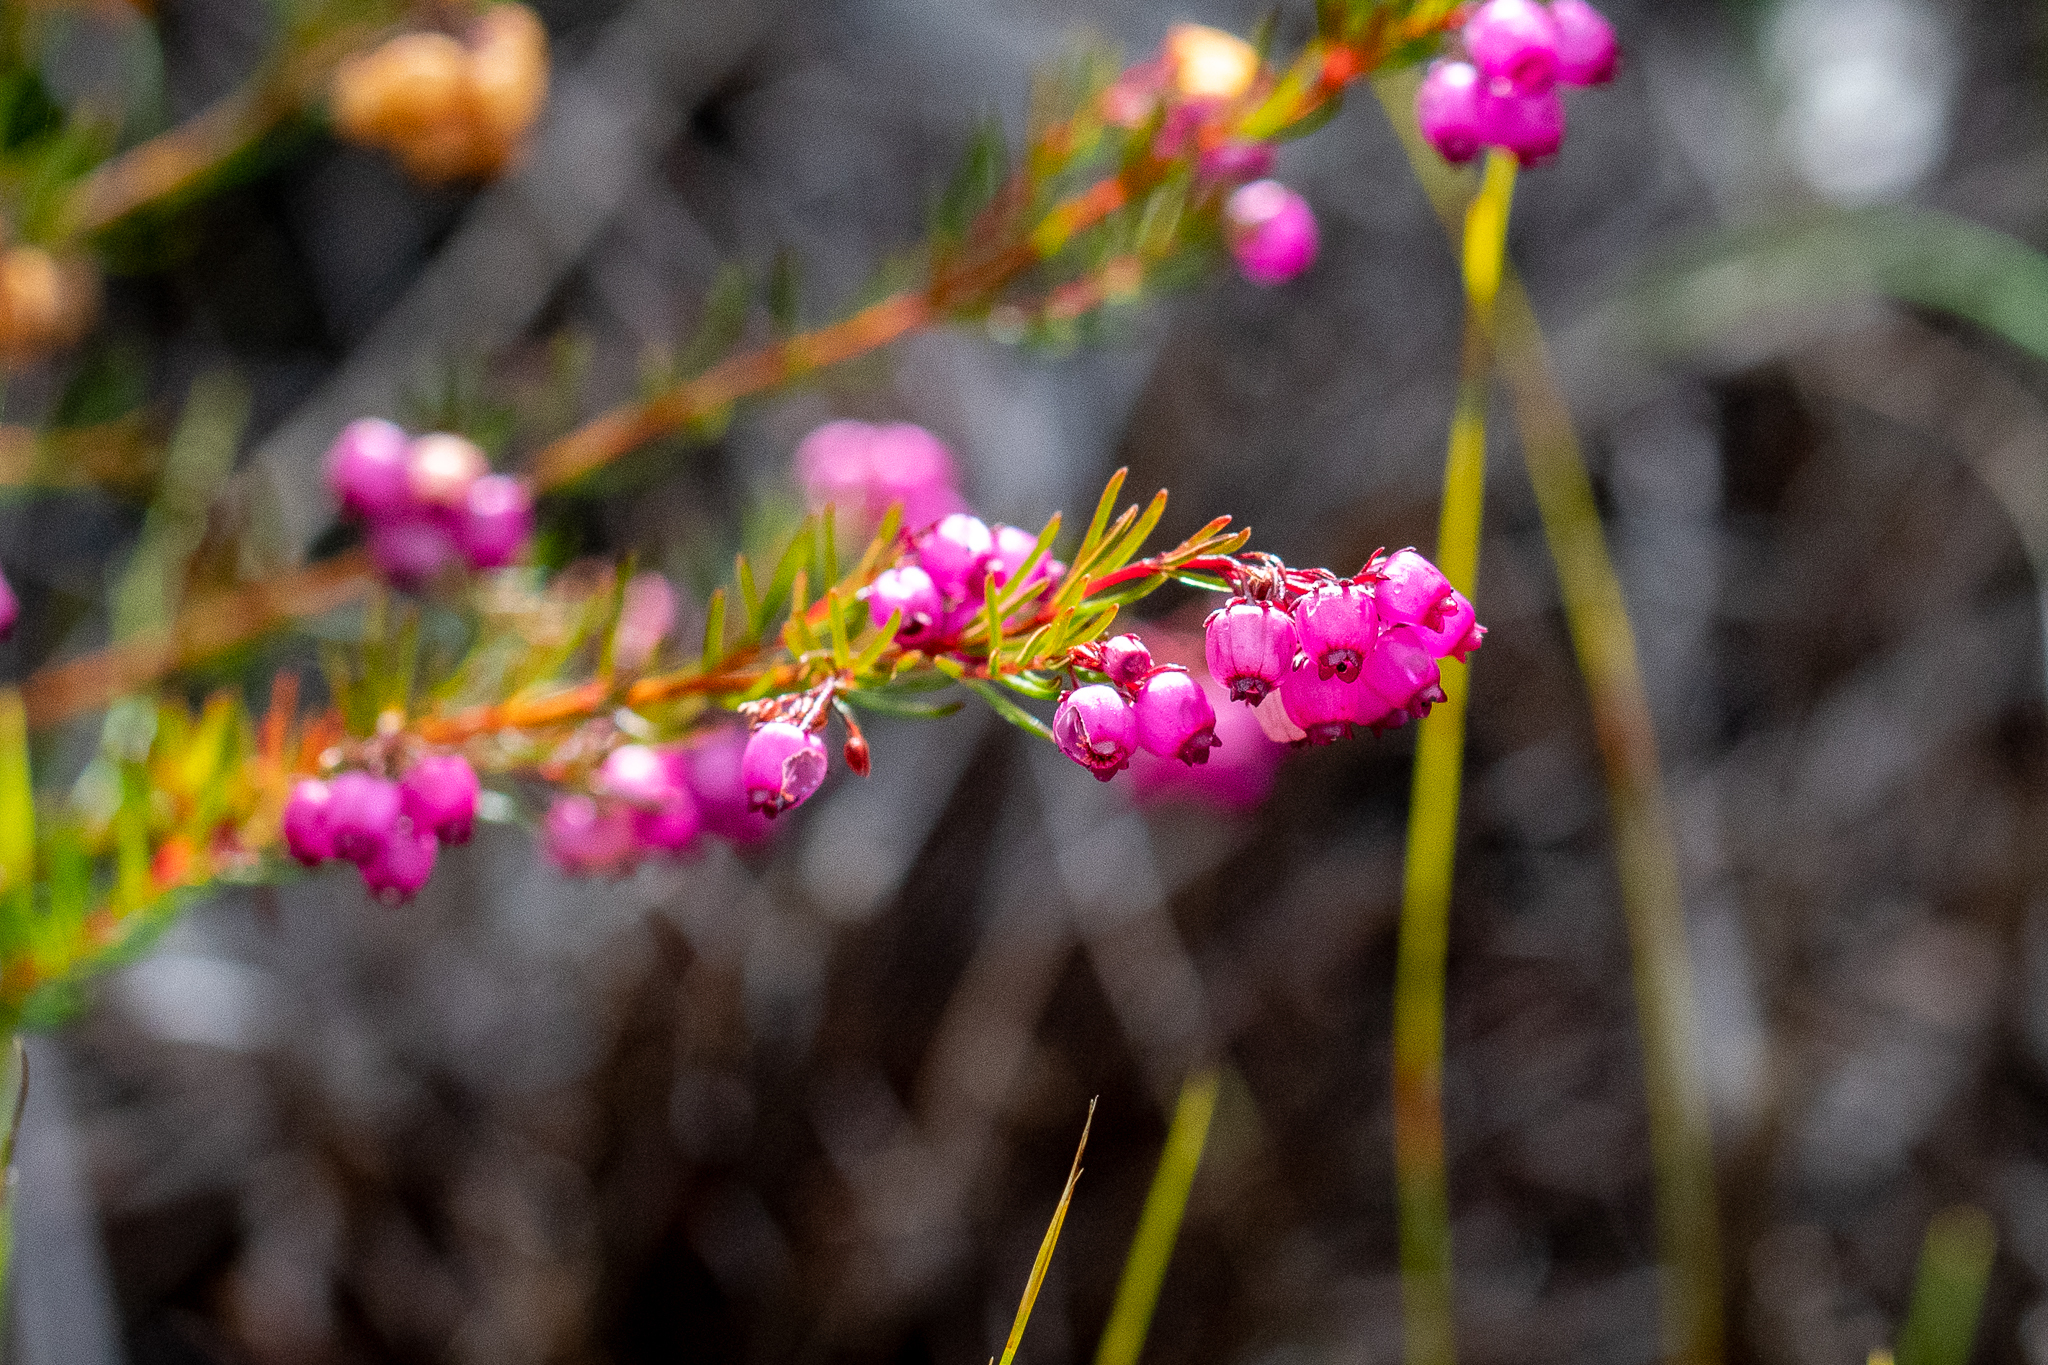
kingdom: Plantae
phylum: Tracheophyta
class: Magnoliopsida
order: Ericales
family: Ericaceae
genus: Erica
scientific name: Erica multumbellifera
